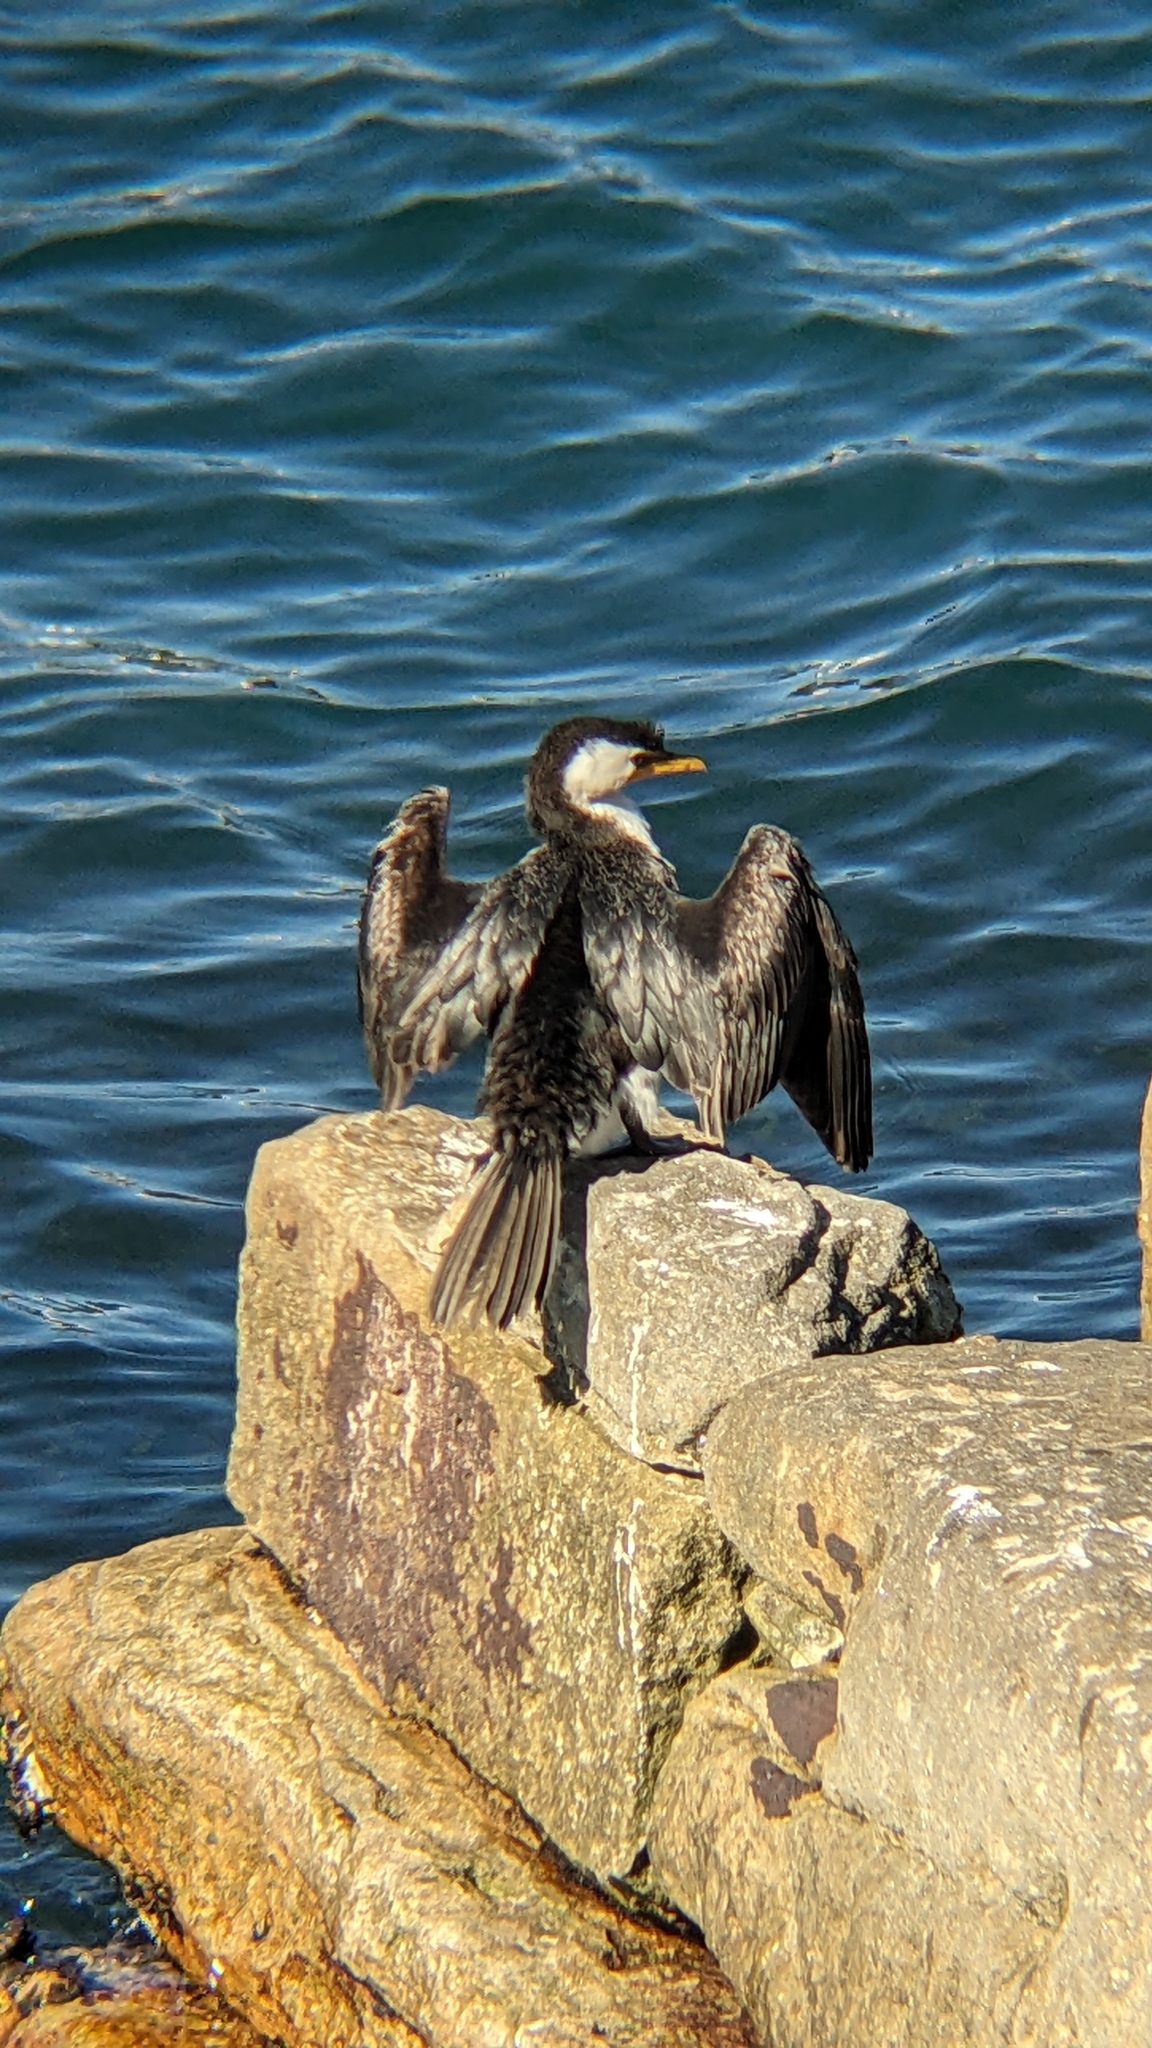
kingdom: Animalia
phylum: Chordata
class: Aves
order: Suliformes
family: Phalacrocoracidae
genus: Microcarbo
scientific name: Microcarbo melanoleucos
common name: Little pied cormorant
